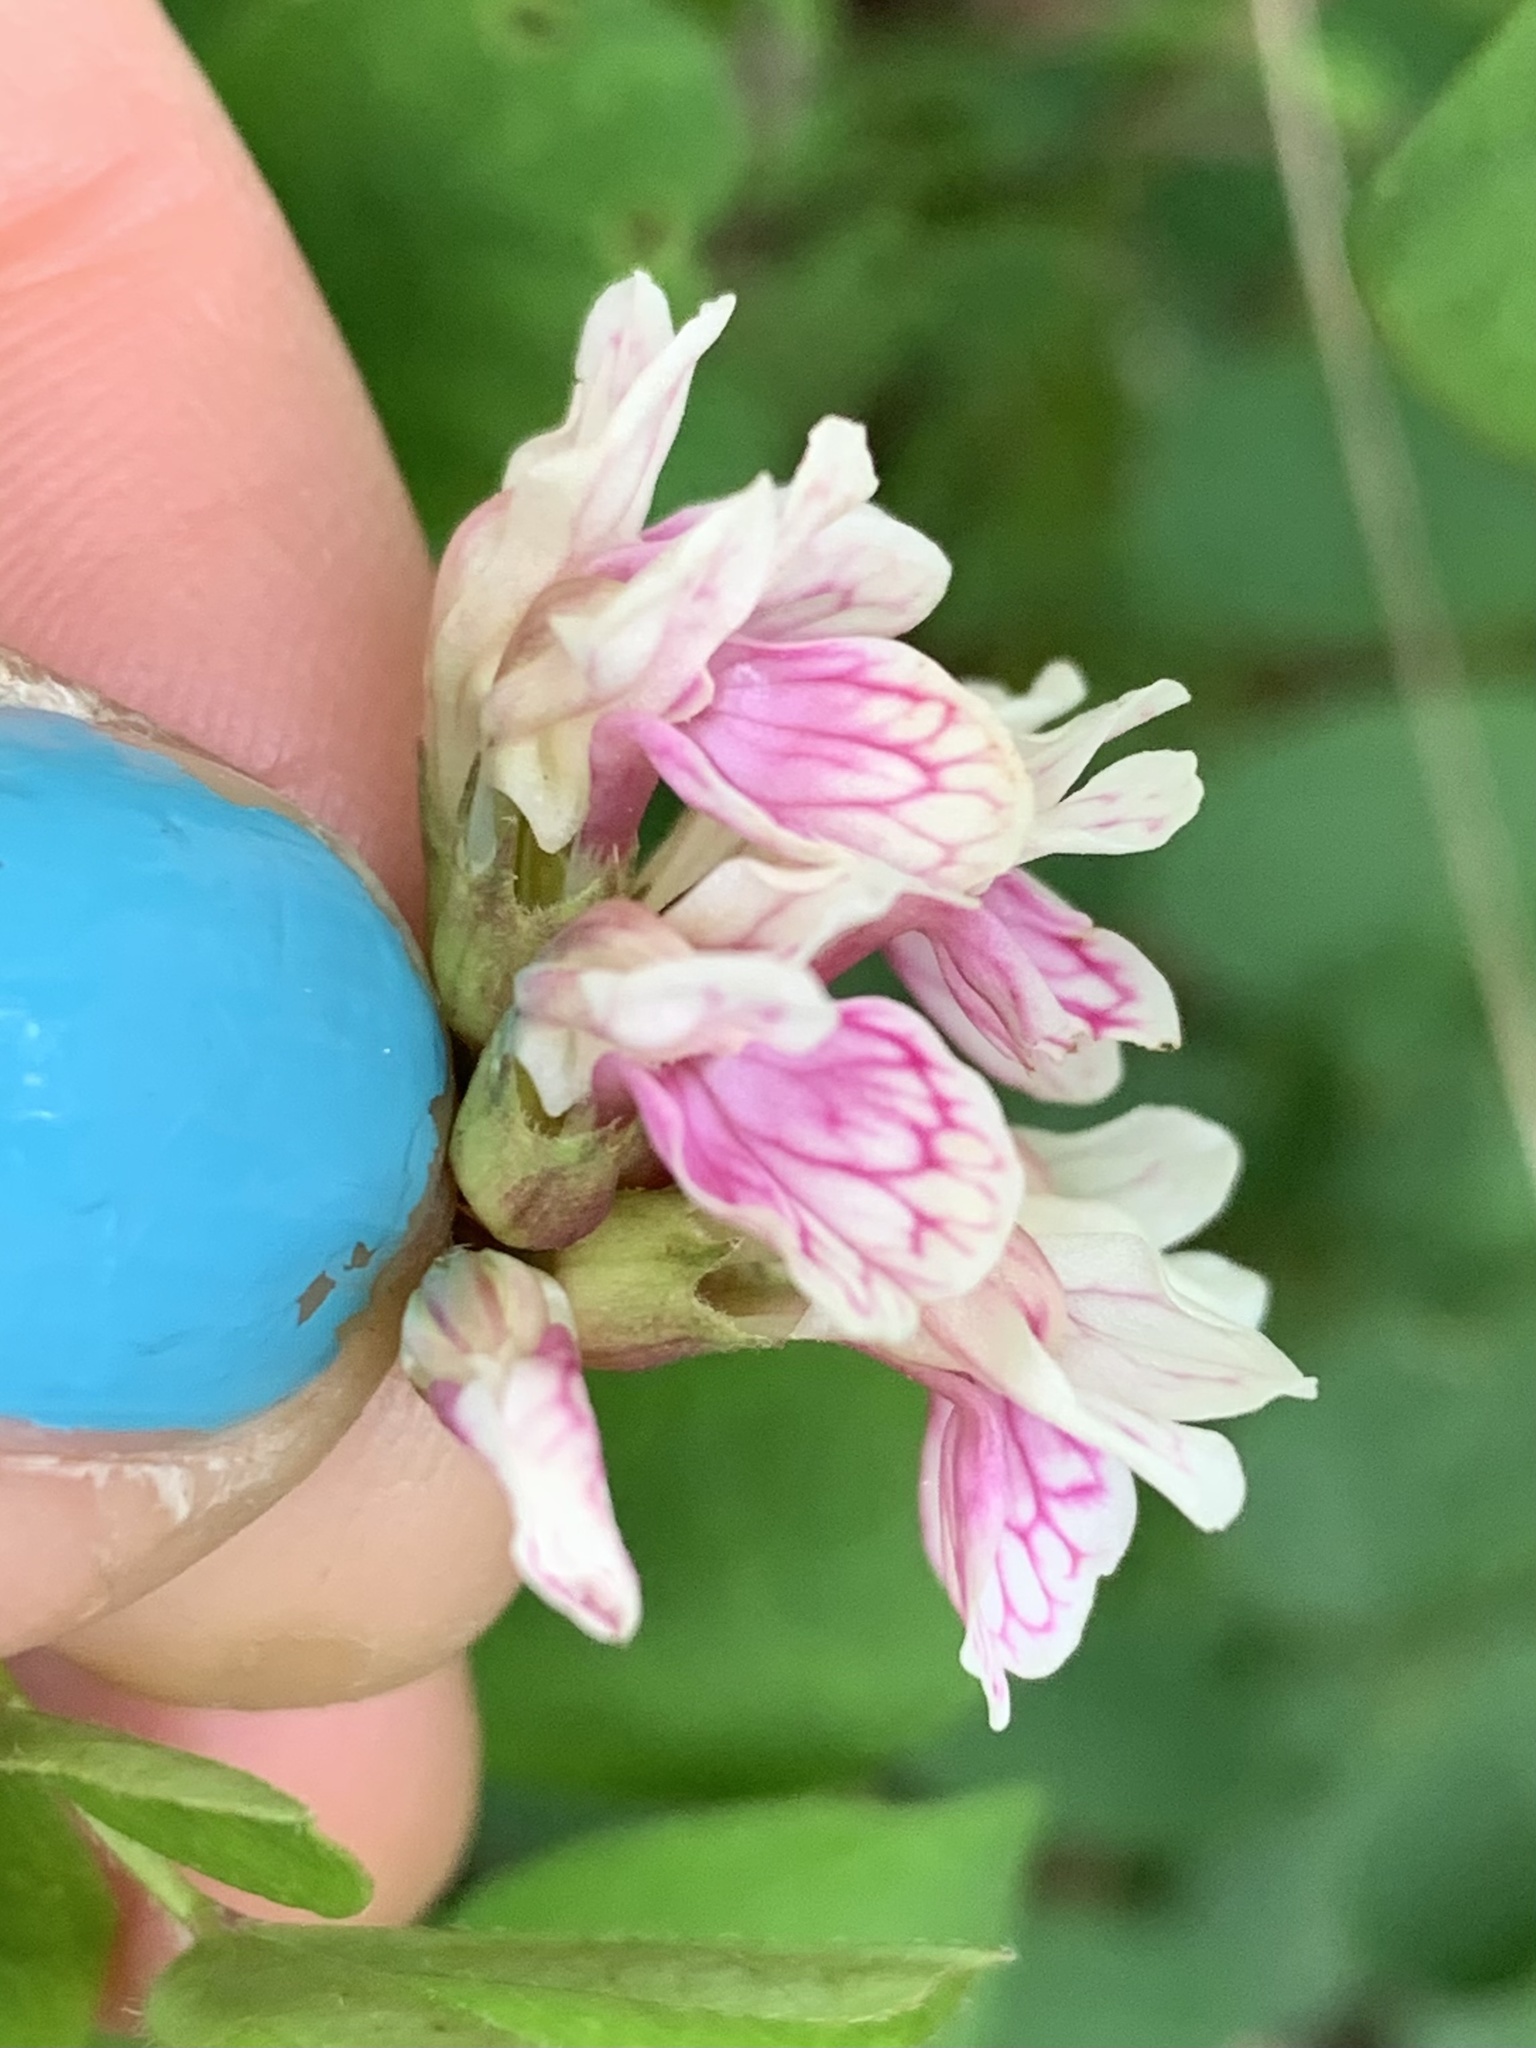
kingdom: Plantae
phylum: Tracheophyta
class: Magnoliopsida
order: Fabales
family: Fabaceae
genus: Hosackia
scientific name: Hosackia rosea
